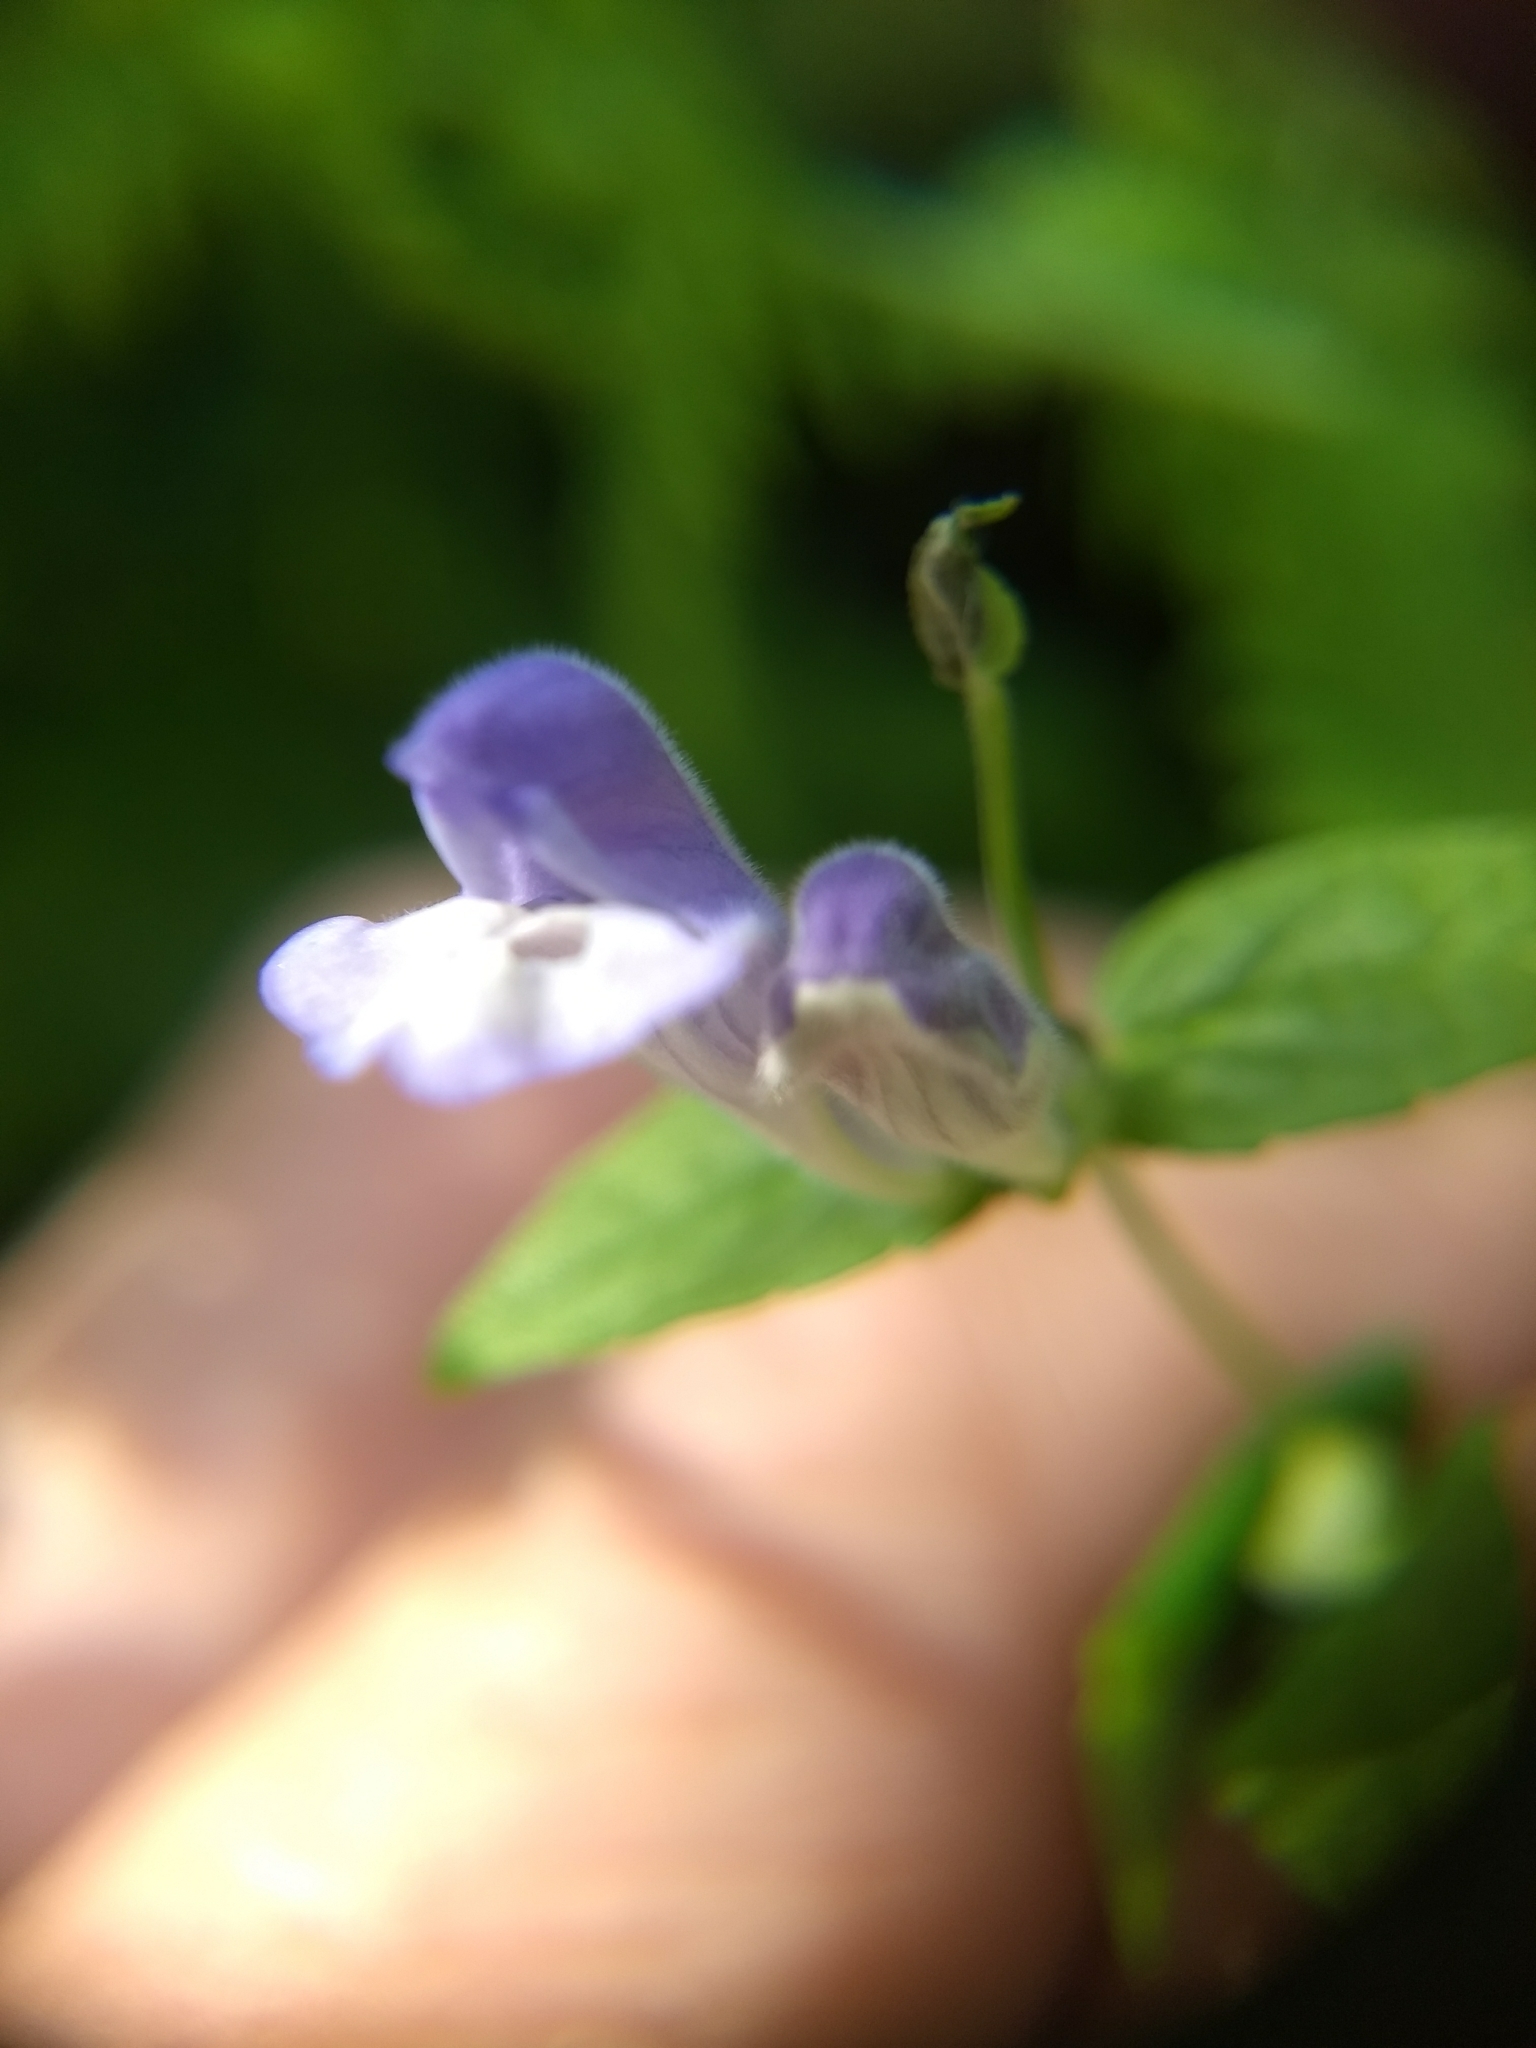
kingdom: Plantae
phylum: Tracheophyta
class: Magnoliopsida
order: Lamiales
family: Lamiaceae
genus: Scutellaria
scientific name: Scutellaria galericulata
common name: Skullcap
